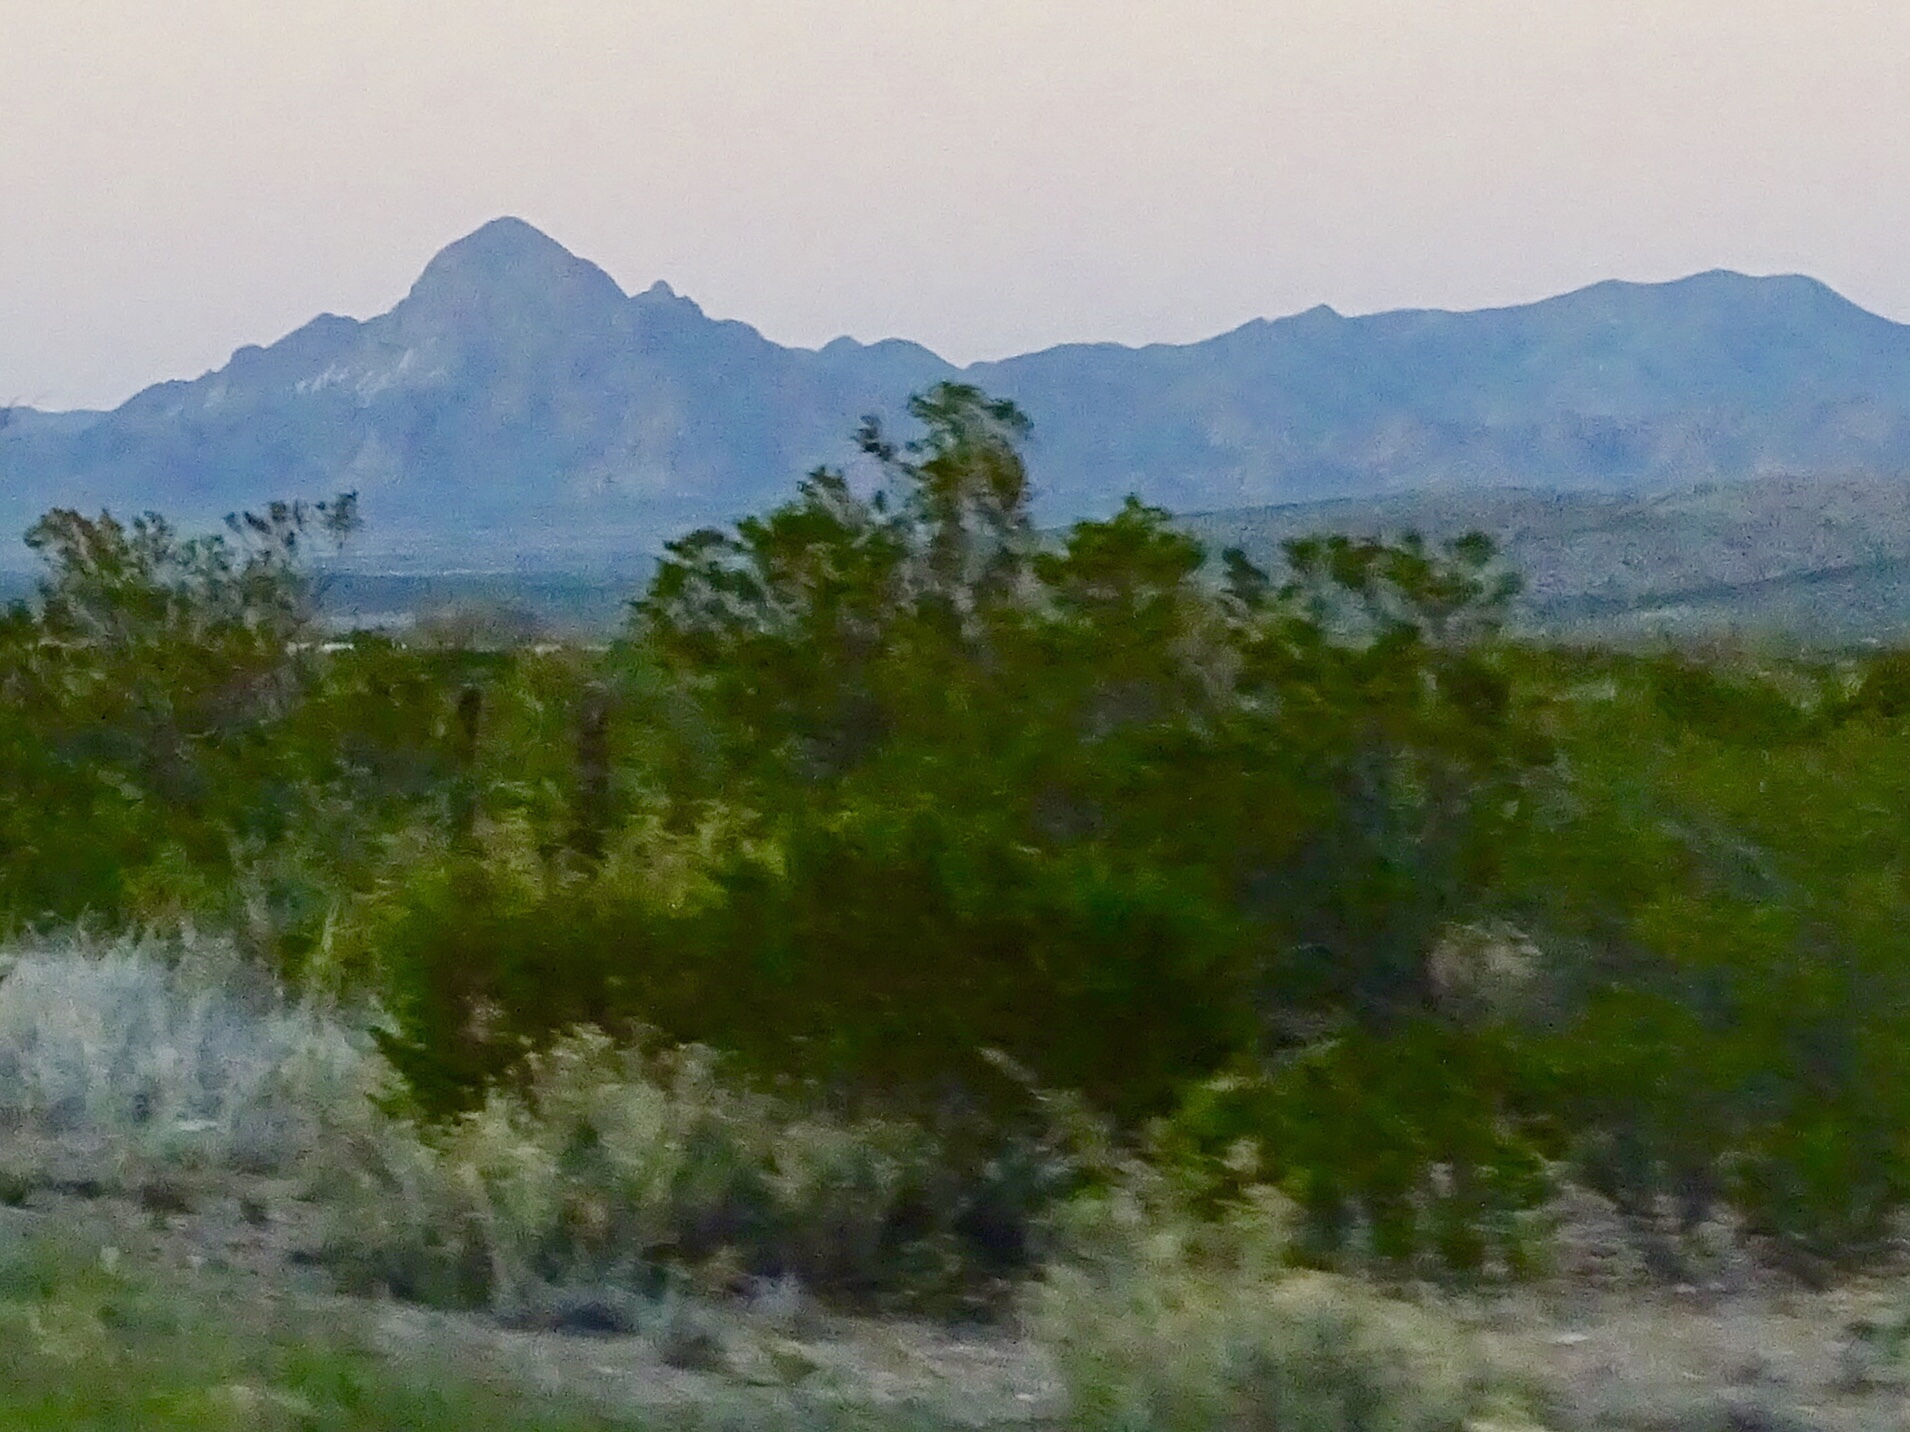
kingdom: Plantae
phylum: Tracheophyta
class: Magnoliopsida
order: Zygophyllales
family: Zygophyllaceae
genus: Larrea
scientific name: Larrea tridentata
